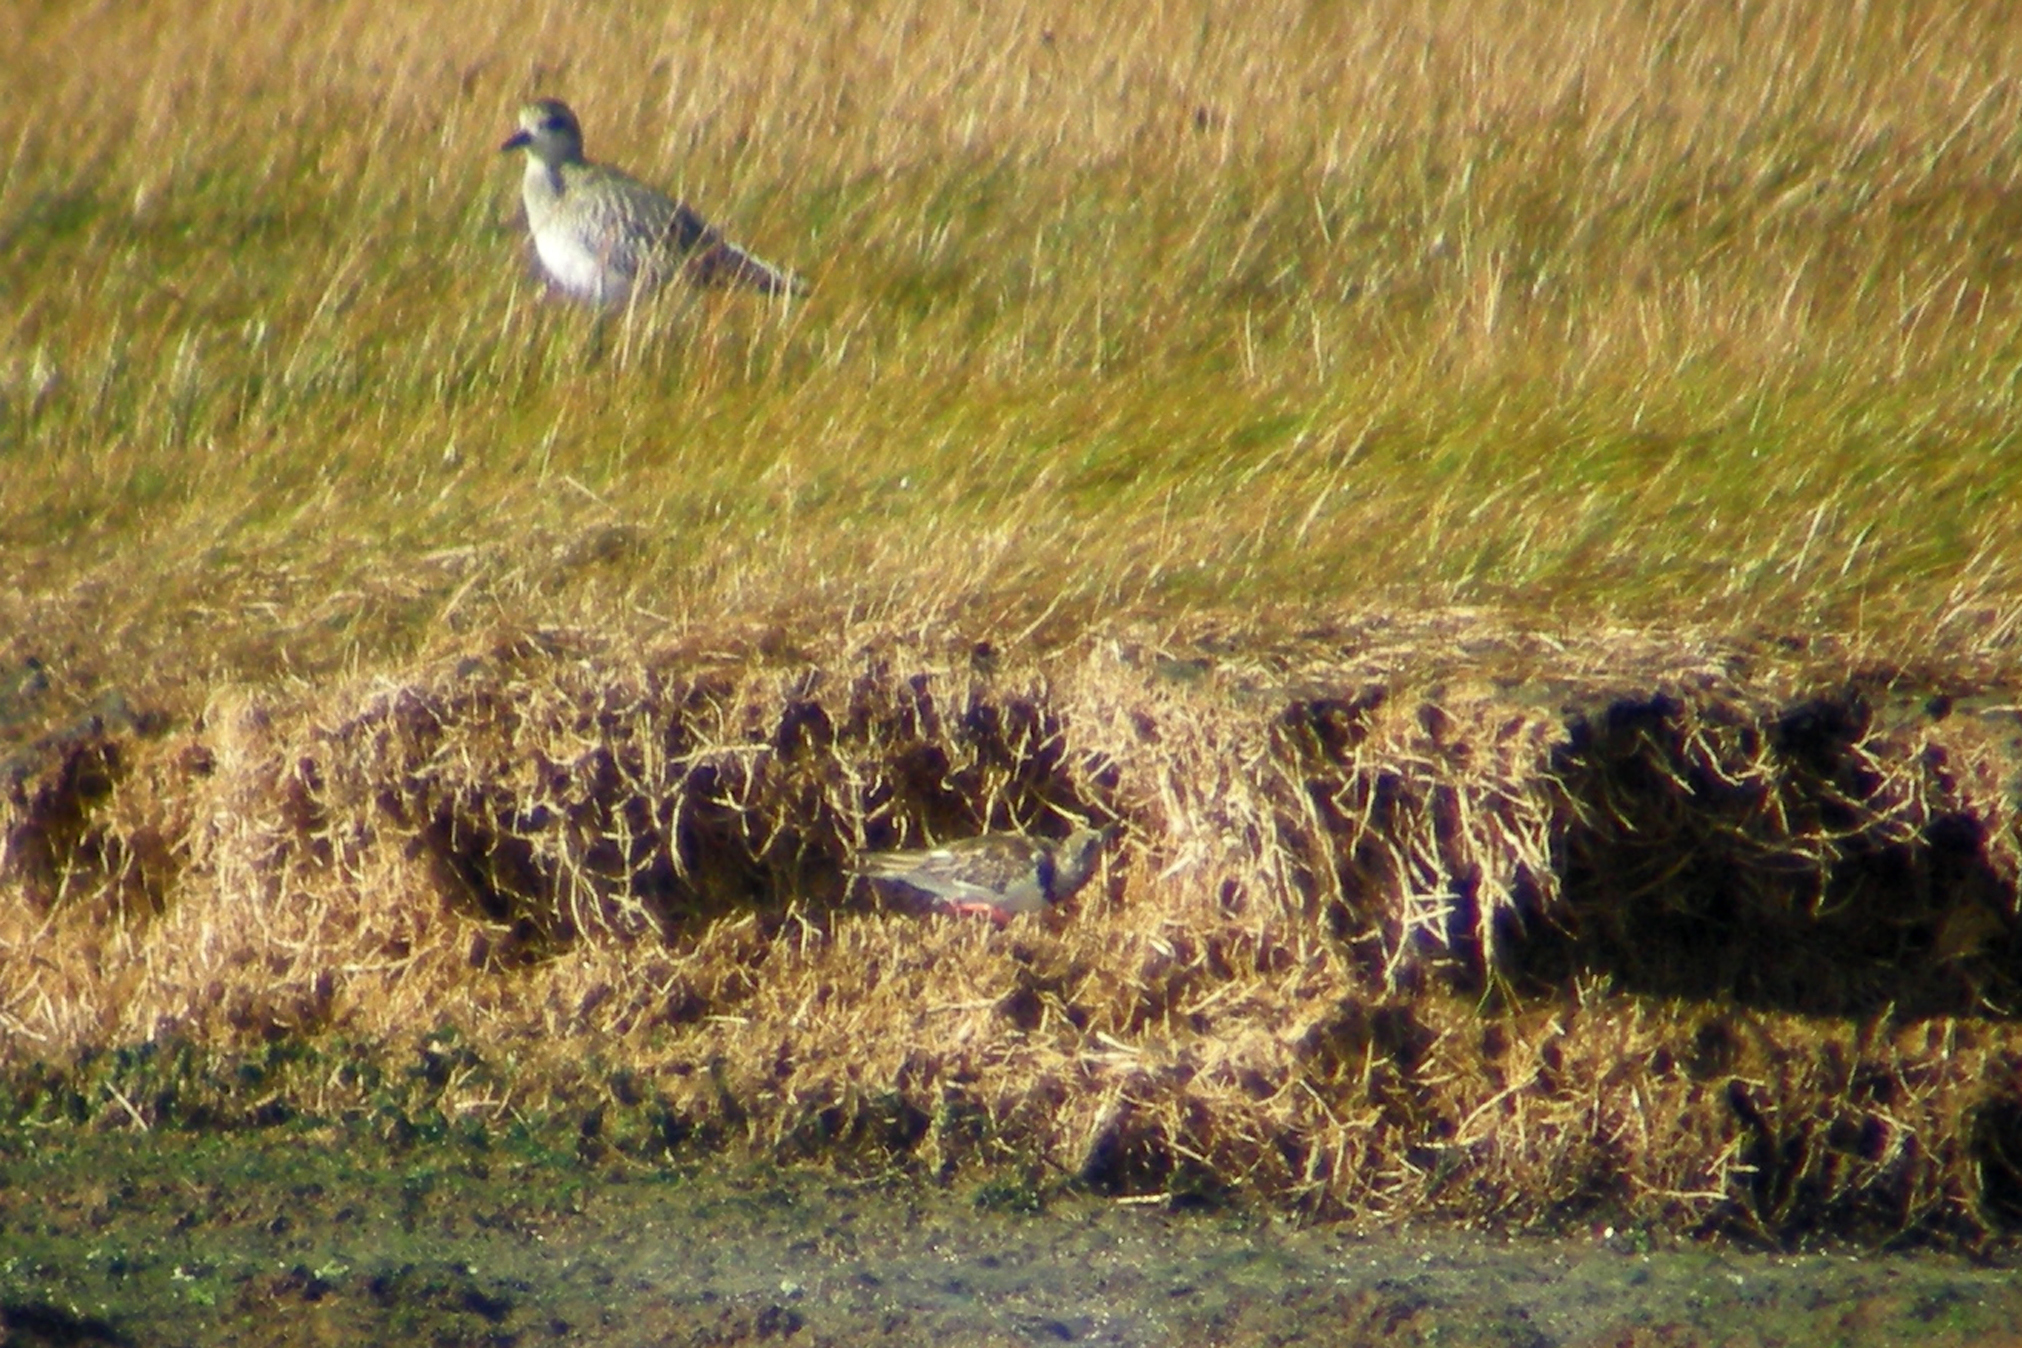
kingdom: Animalia
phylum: Chordata
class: Aves
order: Charadriiformes
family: Scolopacidae
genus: Arenaria
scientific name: Arenaria interpres
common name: Ruddy turnstone
